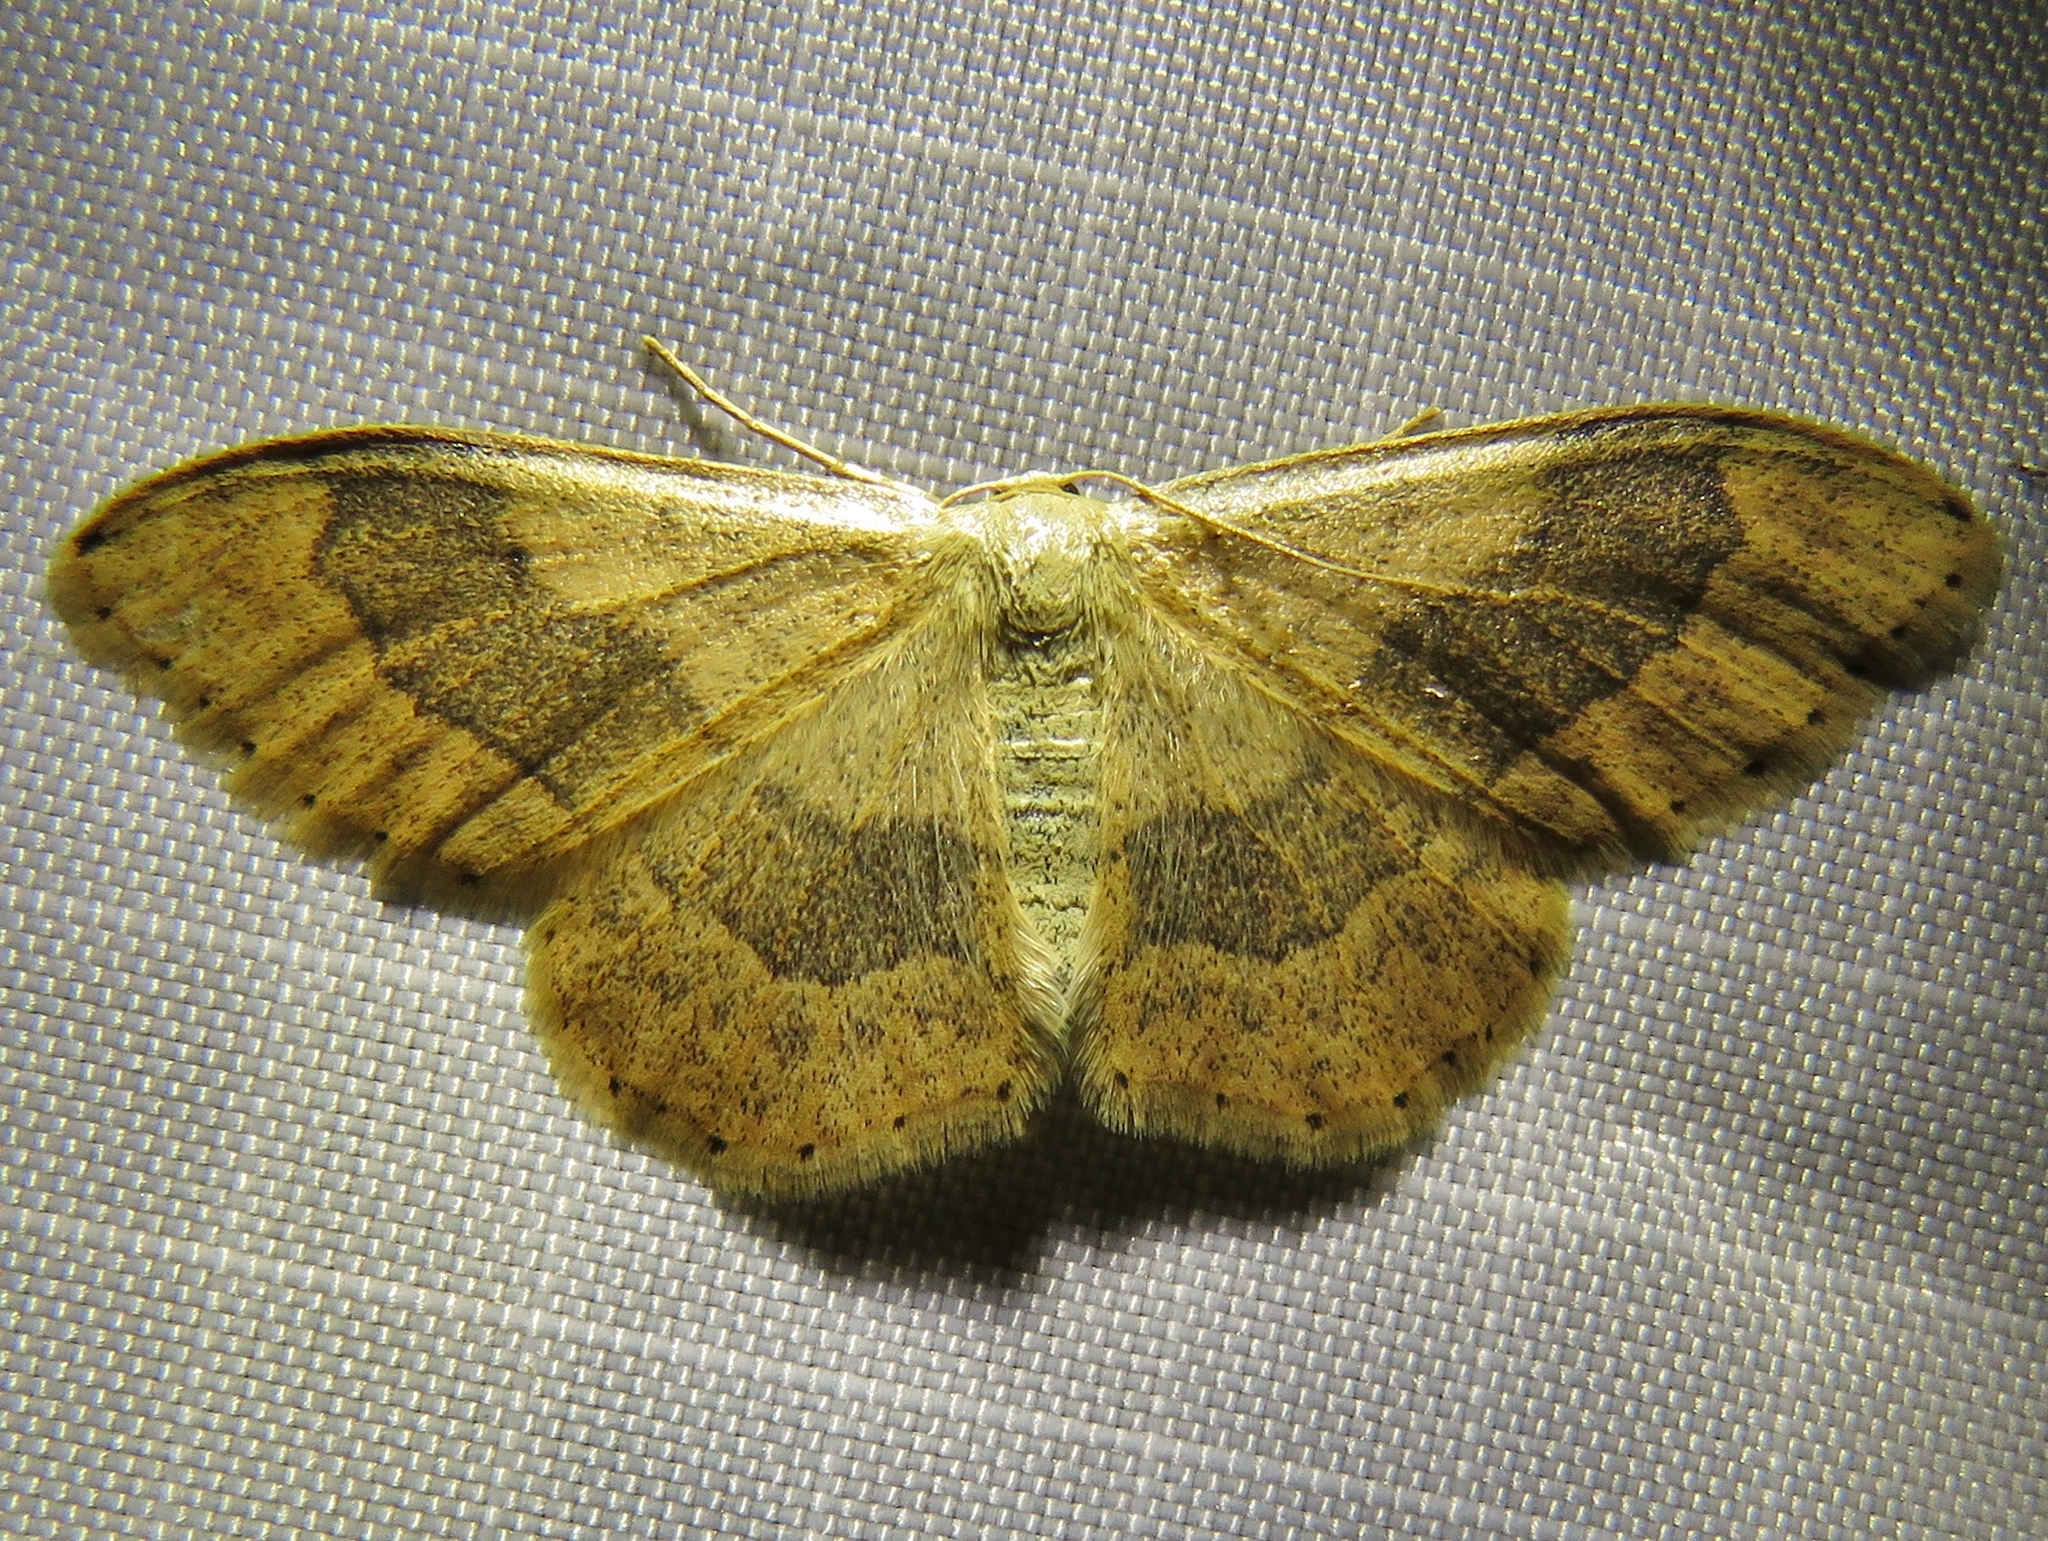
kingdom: Animalia
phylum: Arthropoda
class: Insecta
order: Lepidoptera
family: Geometridae
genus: Idaea
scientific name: Idaea aversata
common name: Riband wave
